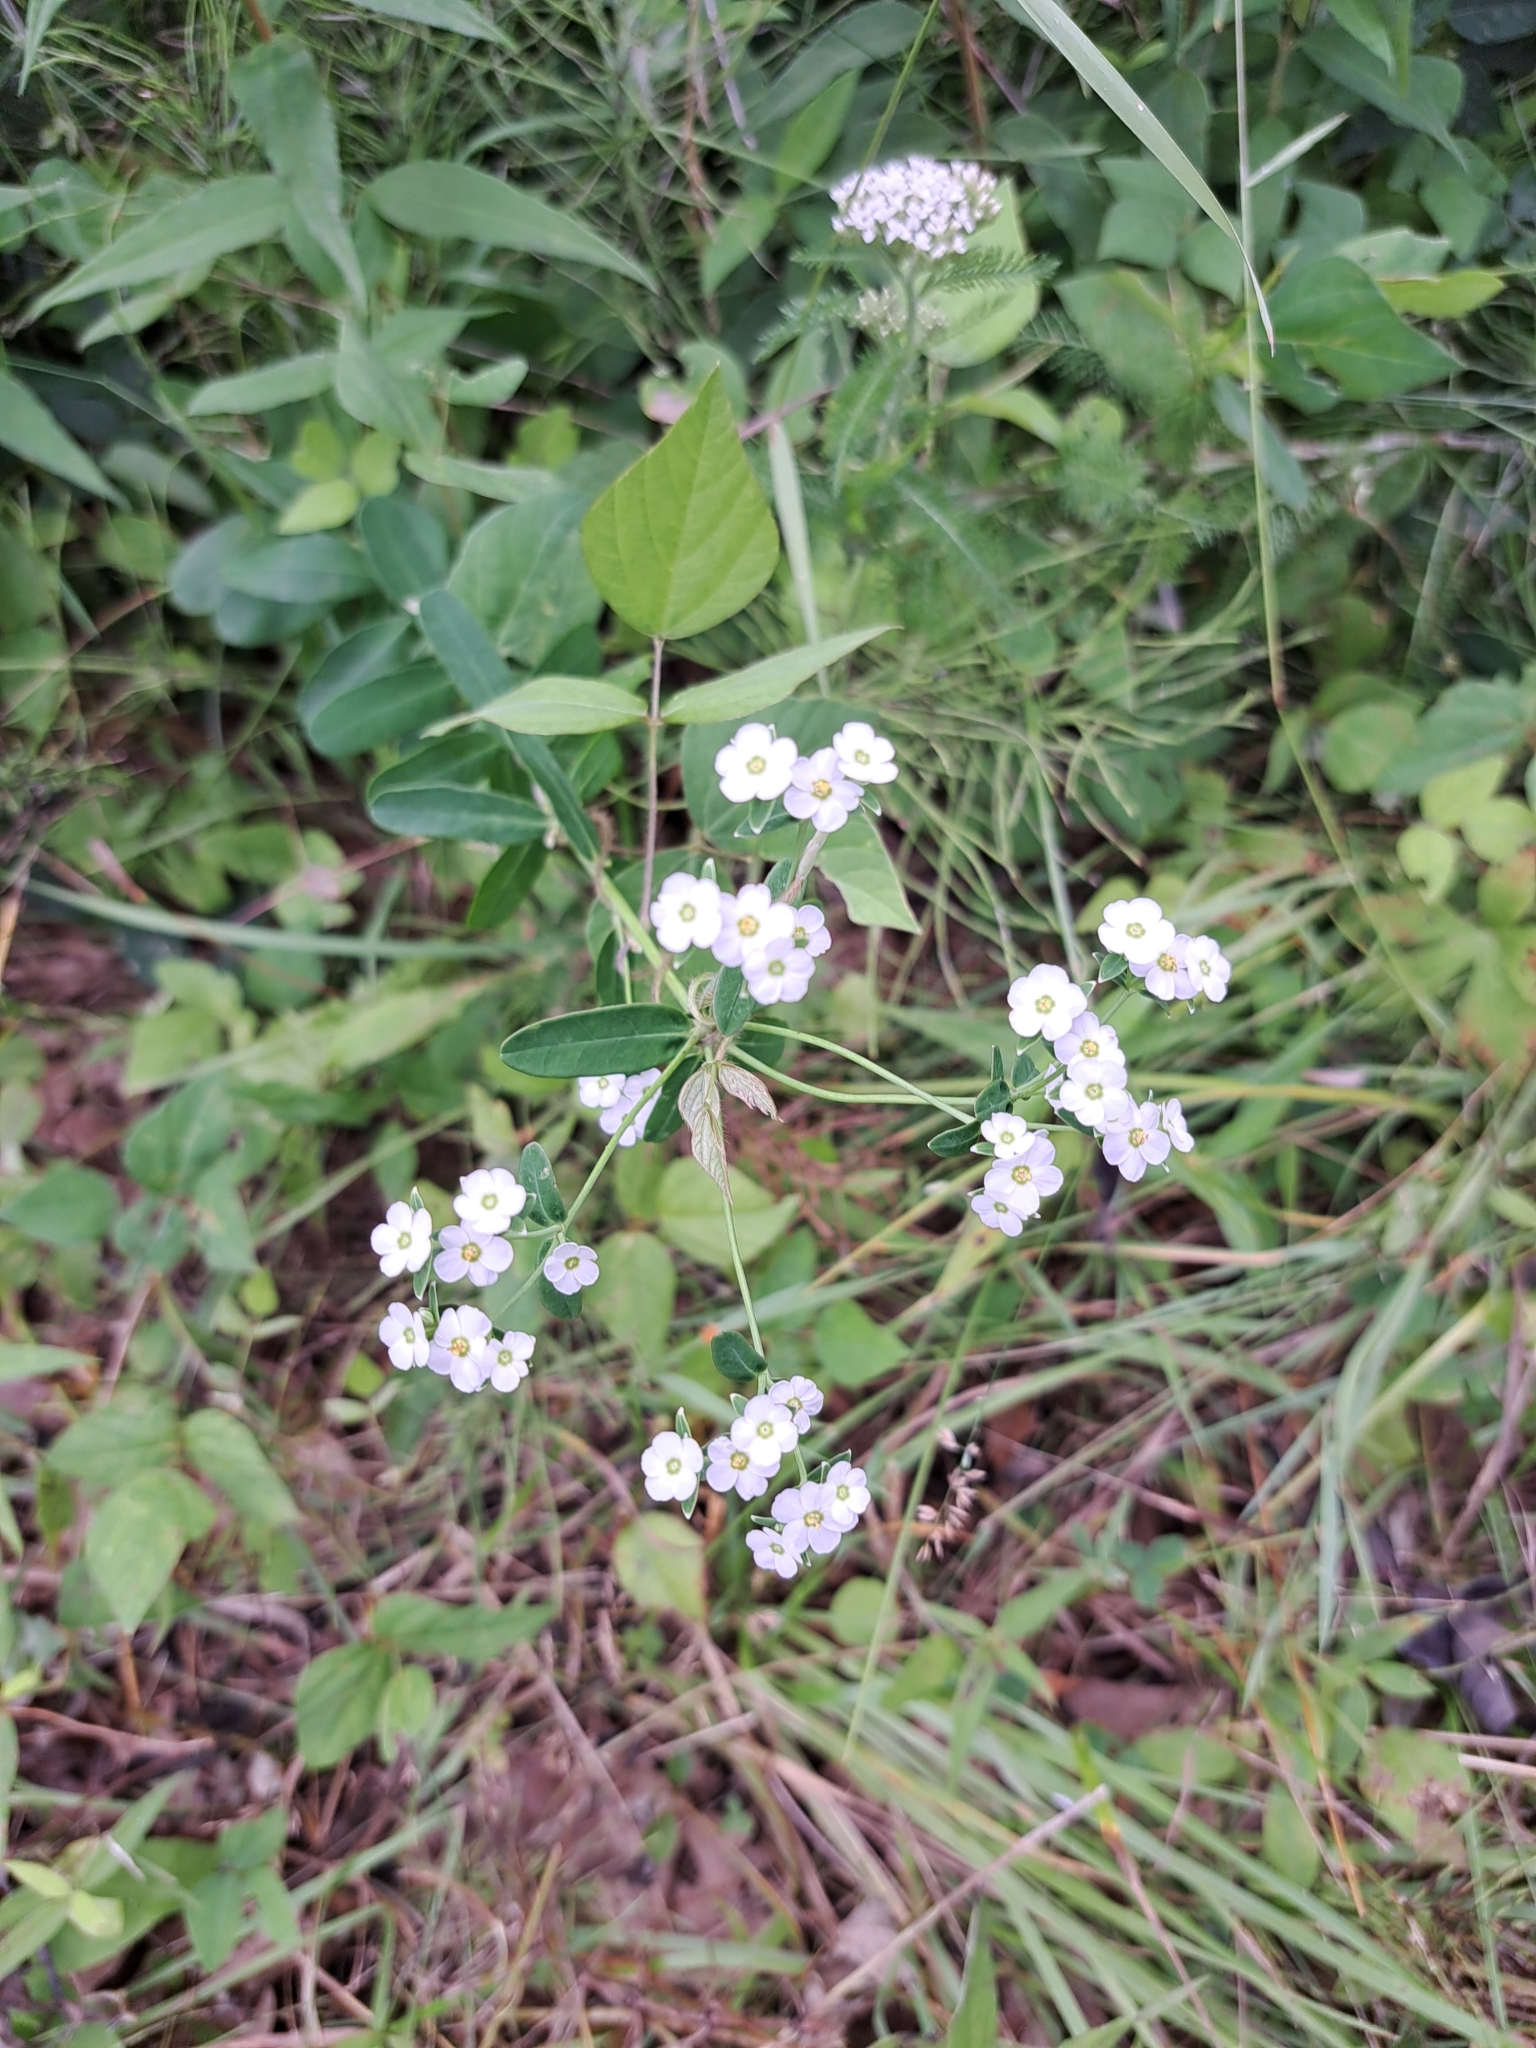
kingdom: Plantae
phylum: Tracheophyta
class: Magnoliopsida
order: Malpighiales
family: Euphorbiaceae
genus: Euphorbia
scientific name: Euphorbia corollata
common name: Flowering spurge
